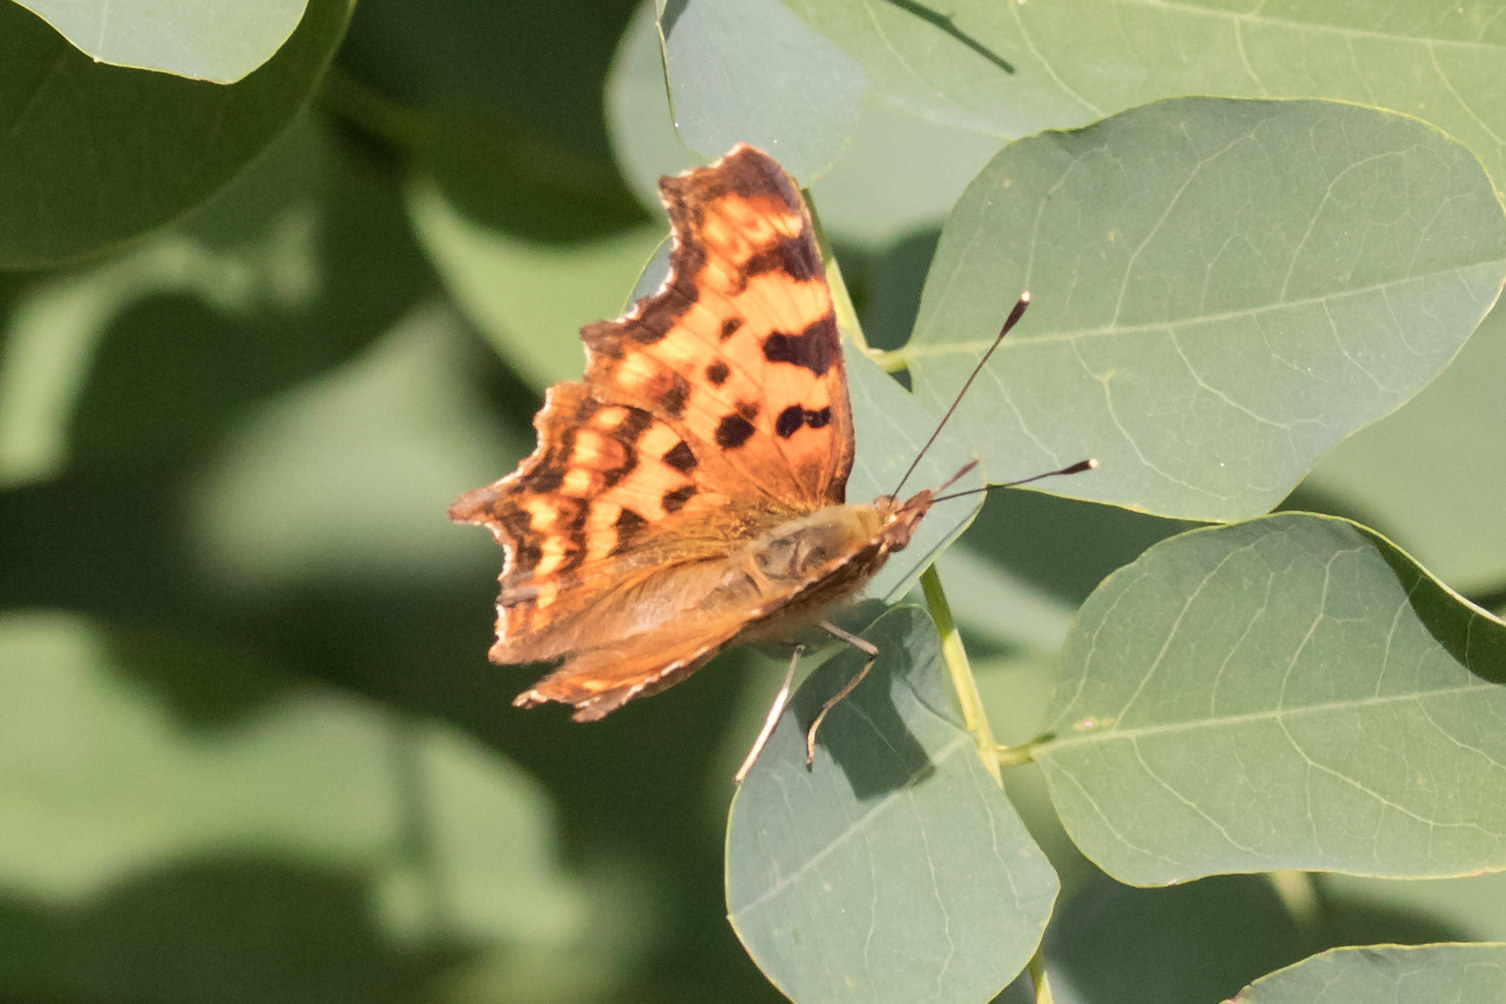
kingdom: Animalia
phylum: Arthropoda
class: Insecta
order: Lepidoptera
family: Nymphalidae
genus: Polygonia
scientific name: Polygonia c-album
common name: Comma
